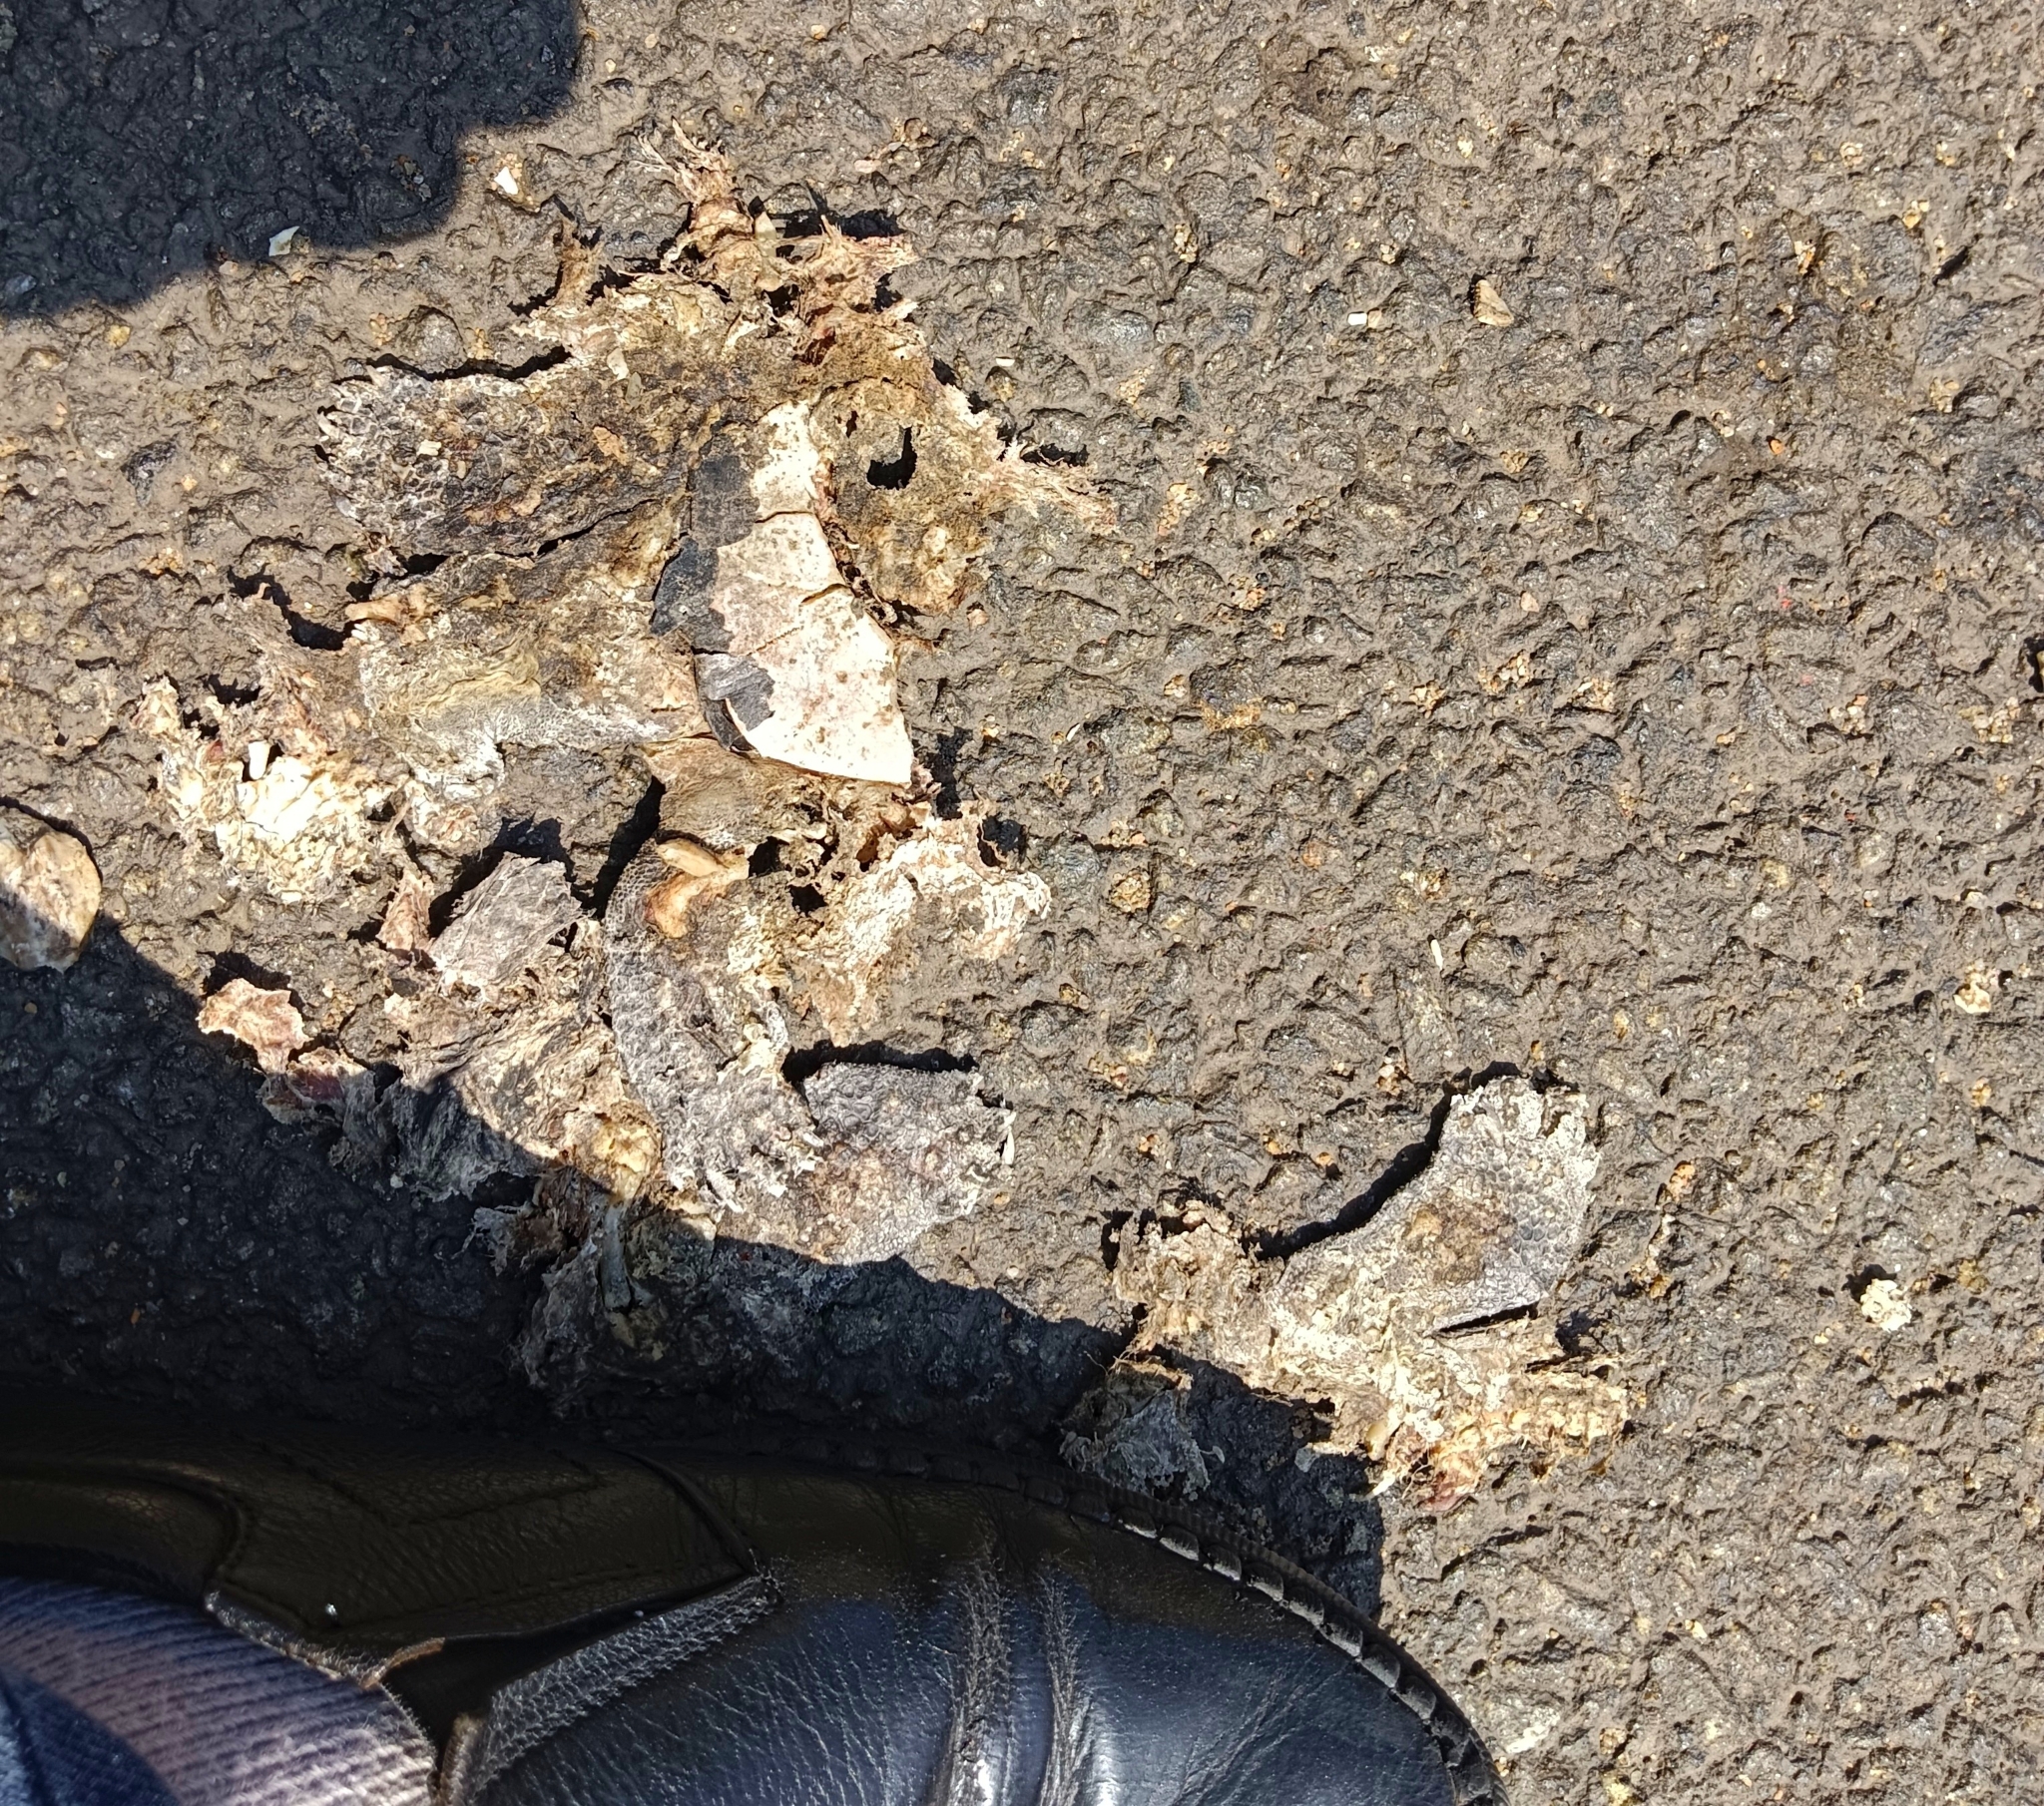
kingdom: Animalia
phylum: Chordata
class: Testudines
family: Geoemydidae
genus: Melanochelys
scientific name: Melanochelys trijuga
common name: Indian black turtle
